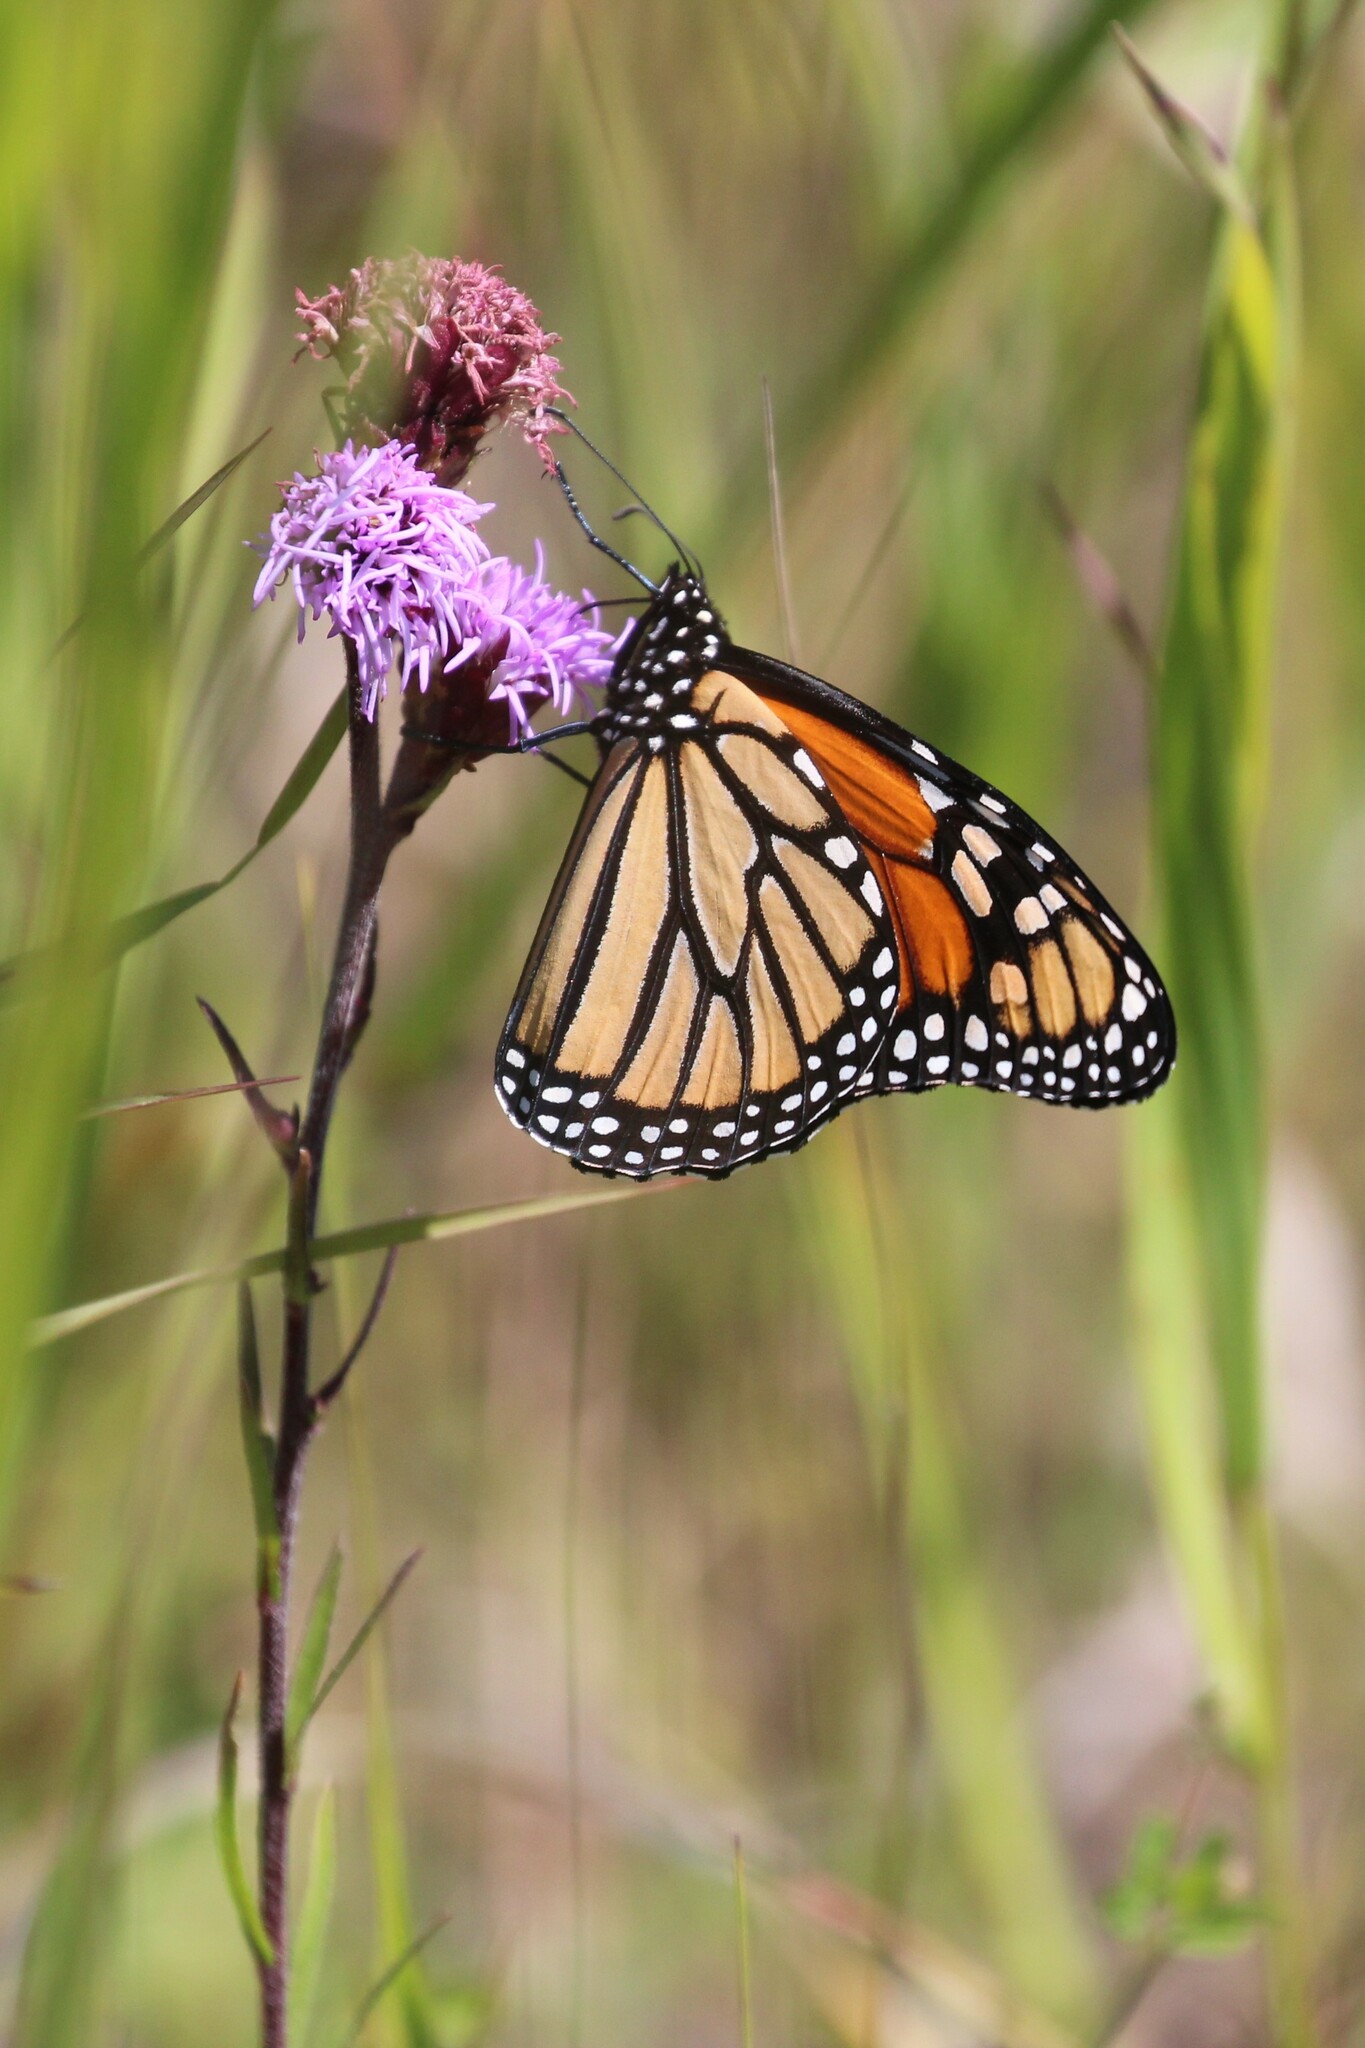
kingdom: Animalia
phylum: Arthropoda
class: Insecta
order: Lepidoptera
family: Nymphalidae
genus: Danaus
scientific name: Danaus plexippus
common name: Monarch
